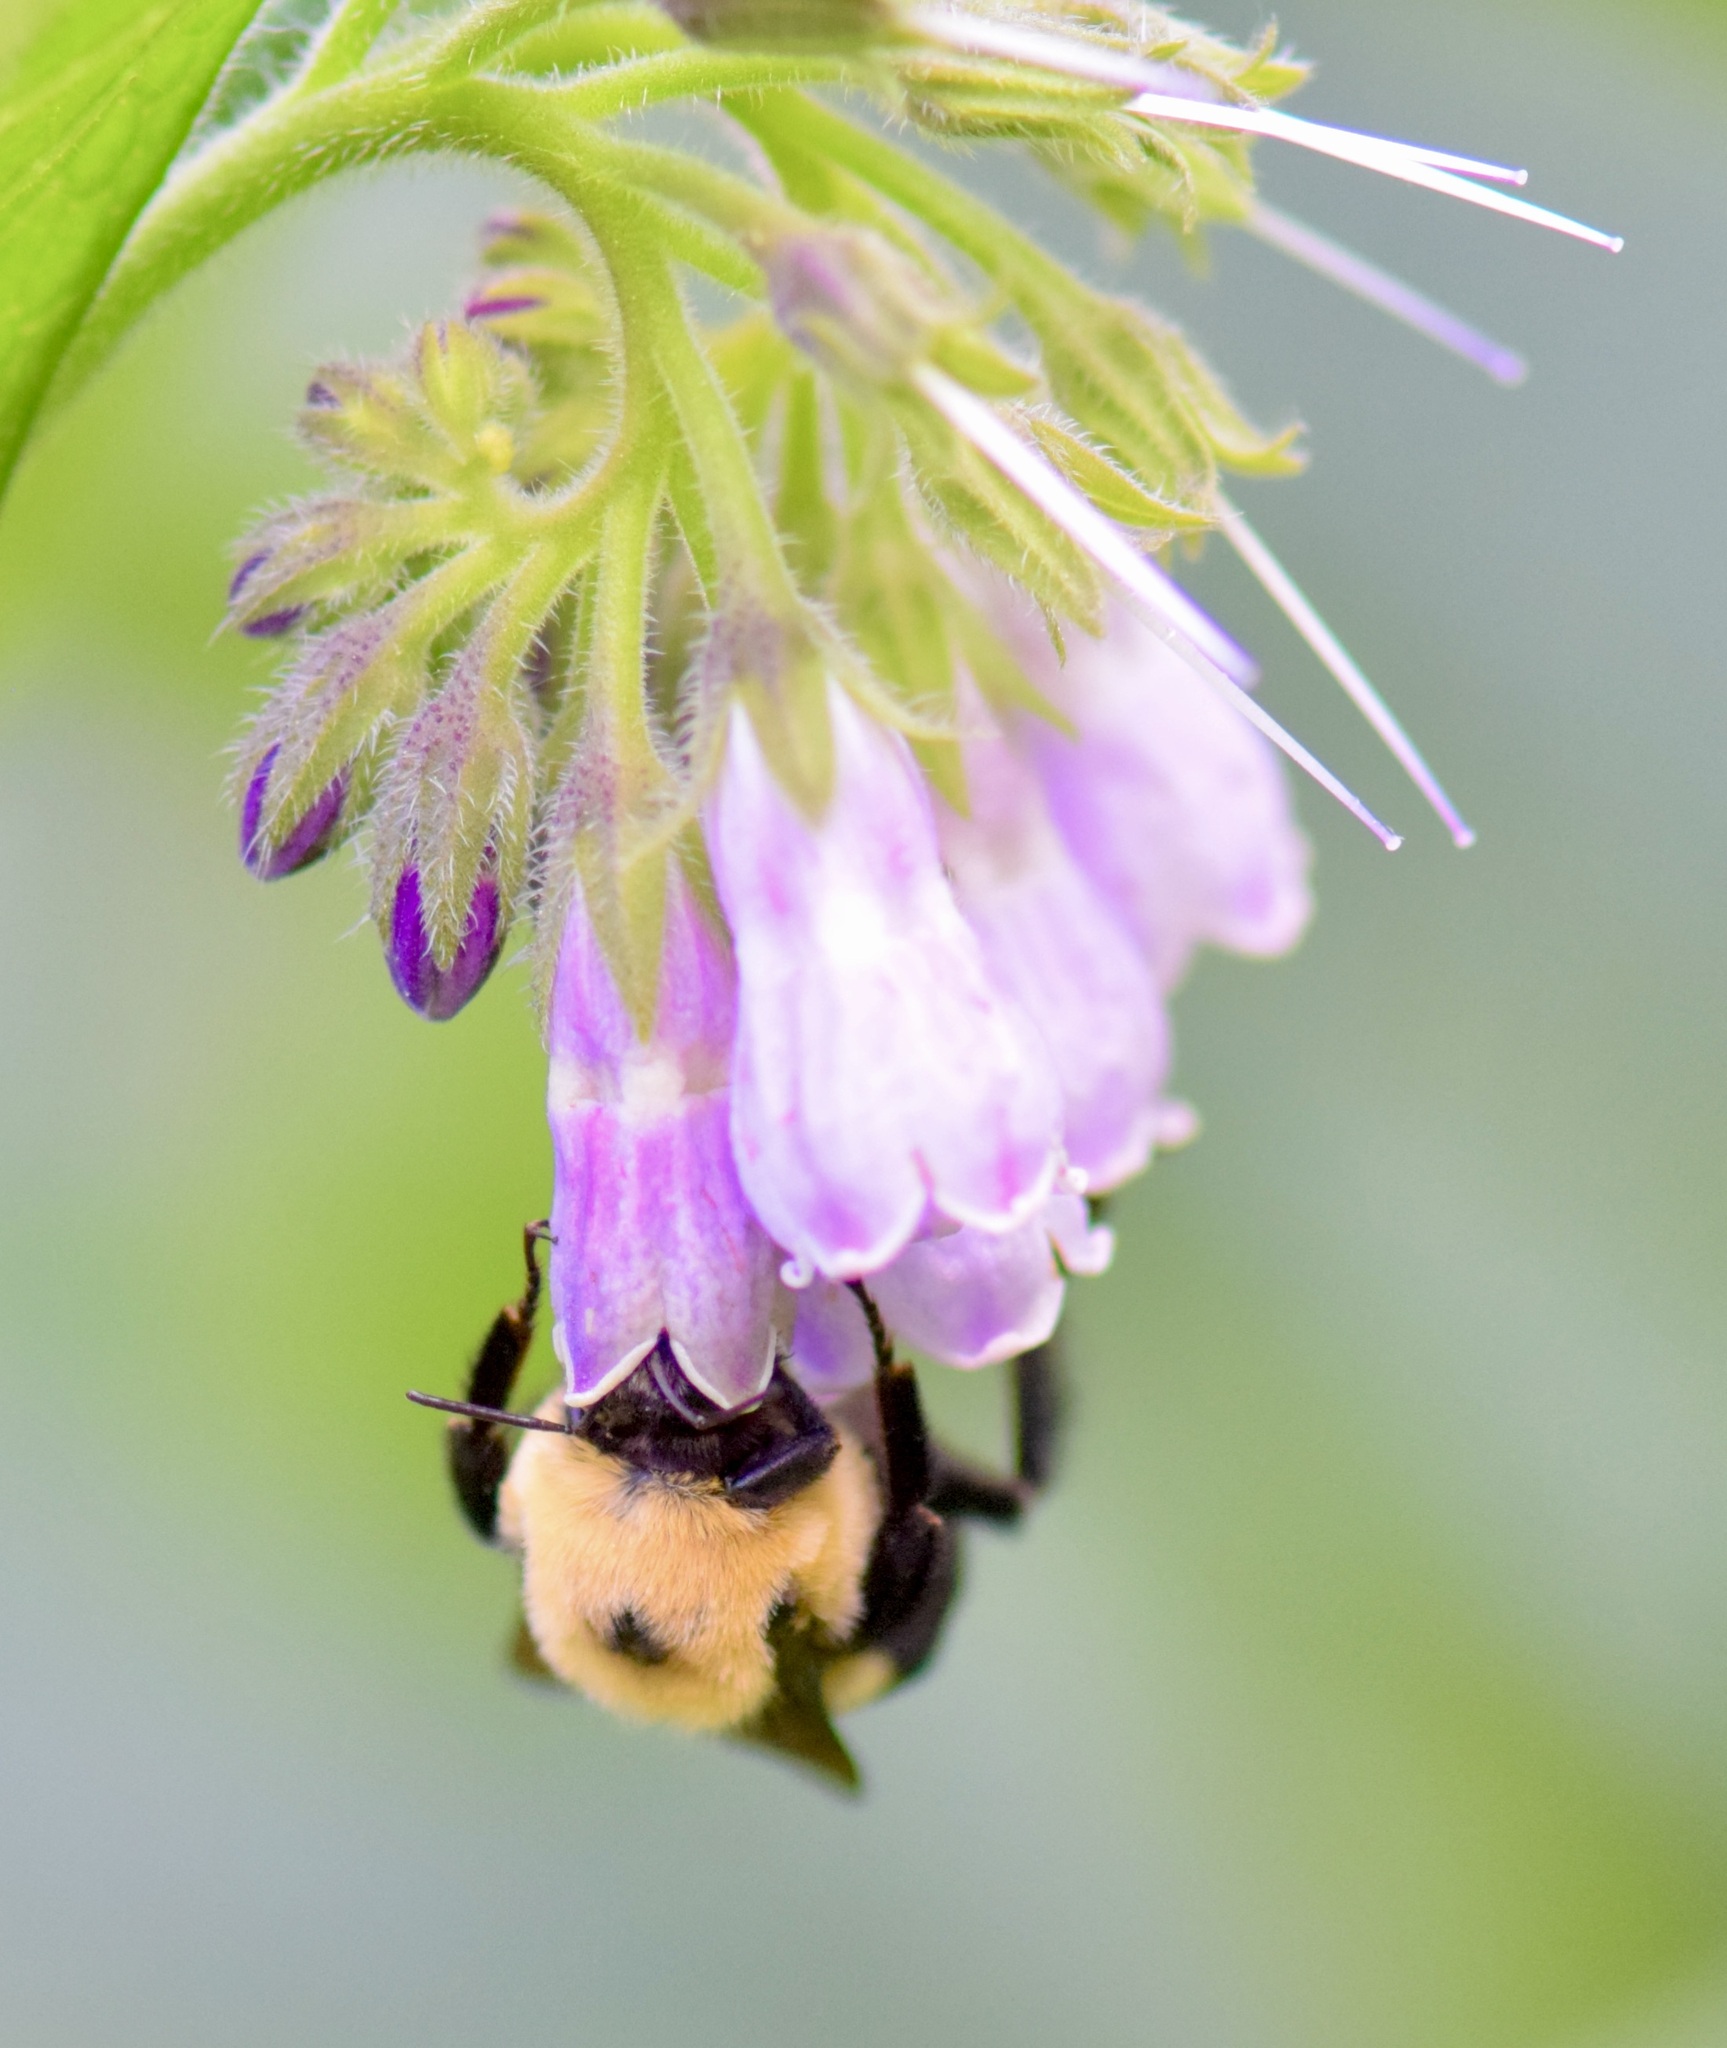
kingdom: Animalia
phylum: Arthropoda
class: Insecta
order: Hymenoptera
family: Apidae
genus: Bombus
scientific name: Bombus griseocollis
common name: Brown-belted bumble bee
